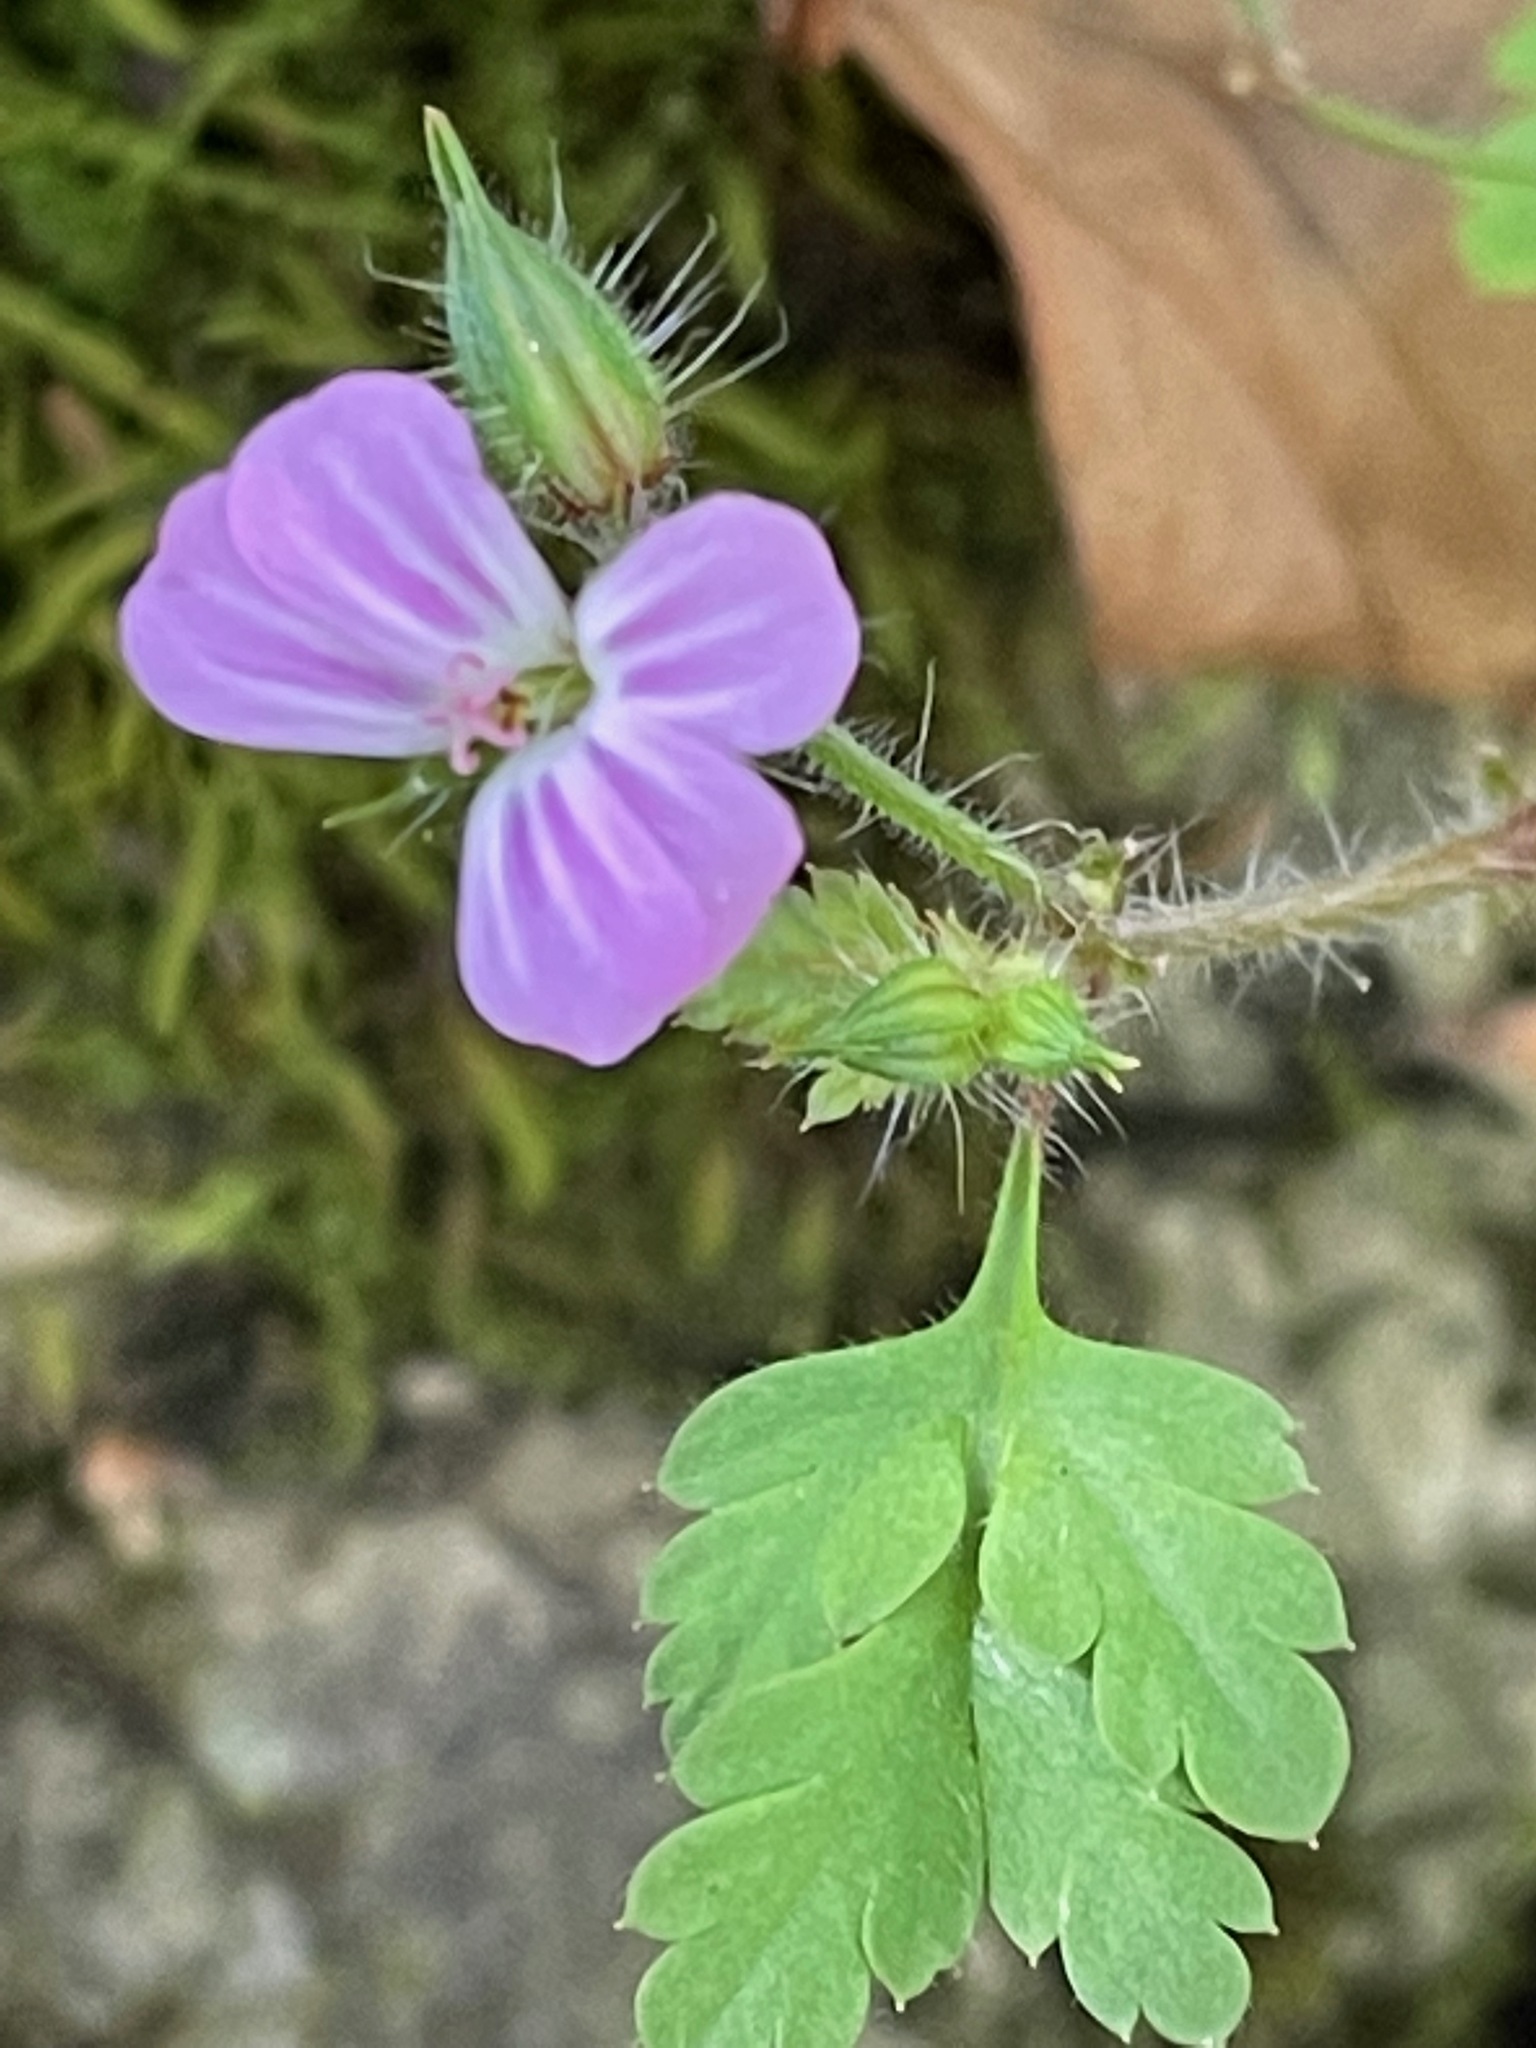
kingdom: Plantae
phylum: Tracheophyta
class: Magnoliopsida
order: Geraniales
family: Geraniaceae
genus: Geranium
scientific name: Geranium robertianum
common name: Herb-robert
